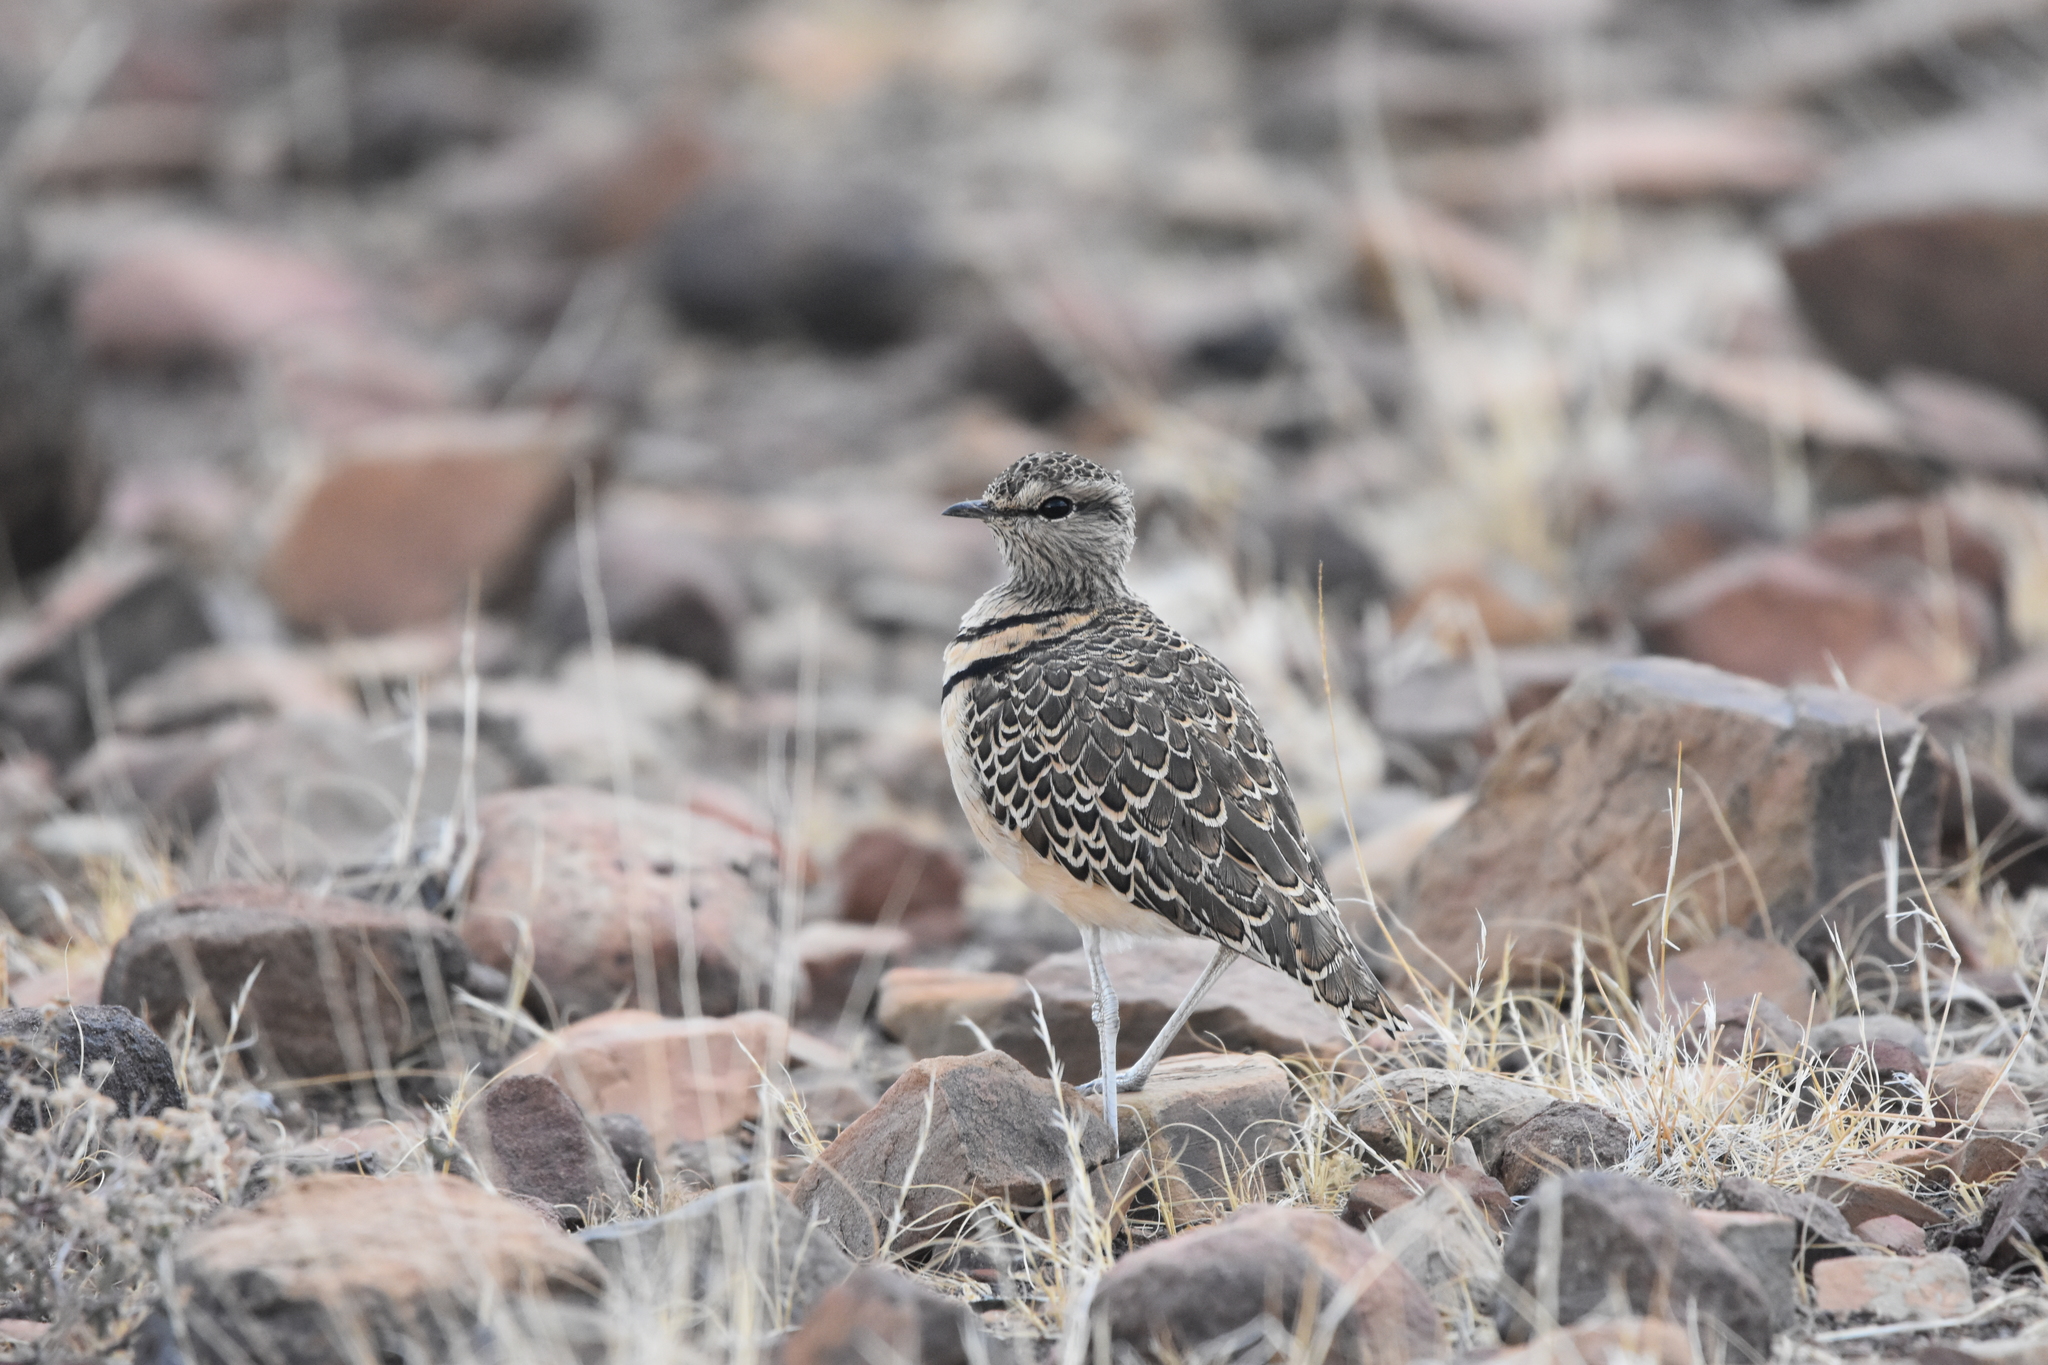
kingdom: Animalia
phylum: Chordata
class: Aves
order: Charadriiformes
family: Glareolidae
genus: Rhinoptilus
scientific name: Rhinoptilus africanus
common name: Double-banded courser
